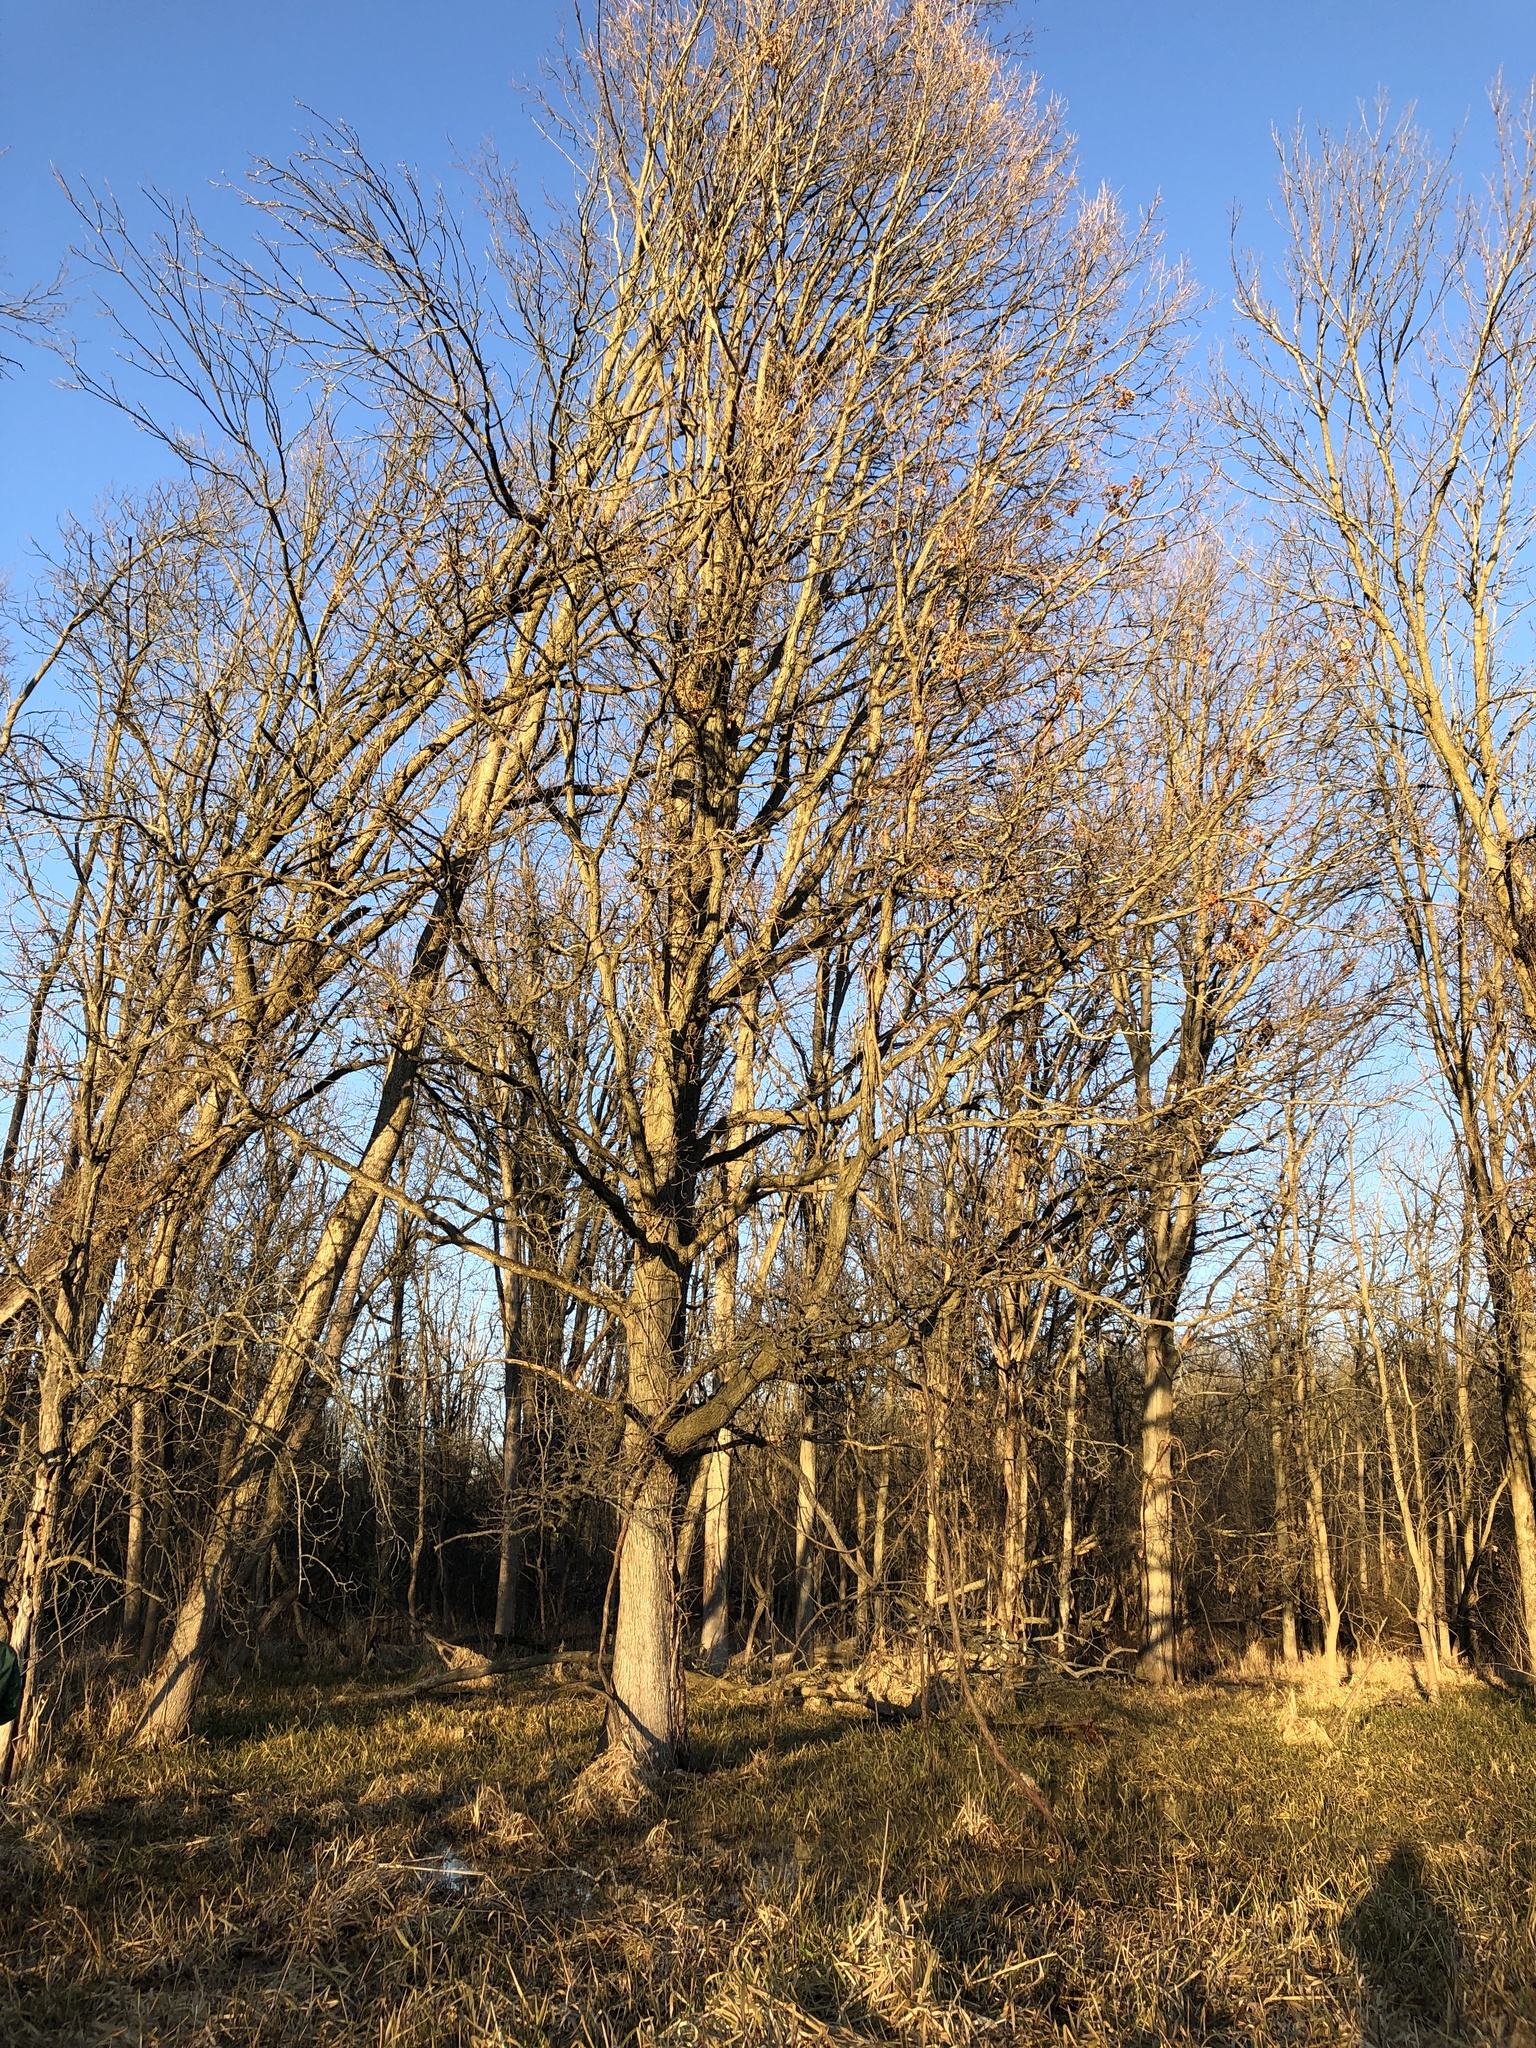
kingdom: Plantae
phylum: Tracheophyta
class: Magnoliopsida
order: Fagales
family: Fagaceae
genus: Quercus
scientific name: Quercus bicolor
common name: Swamp white oak
